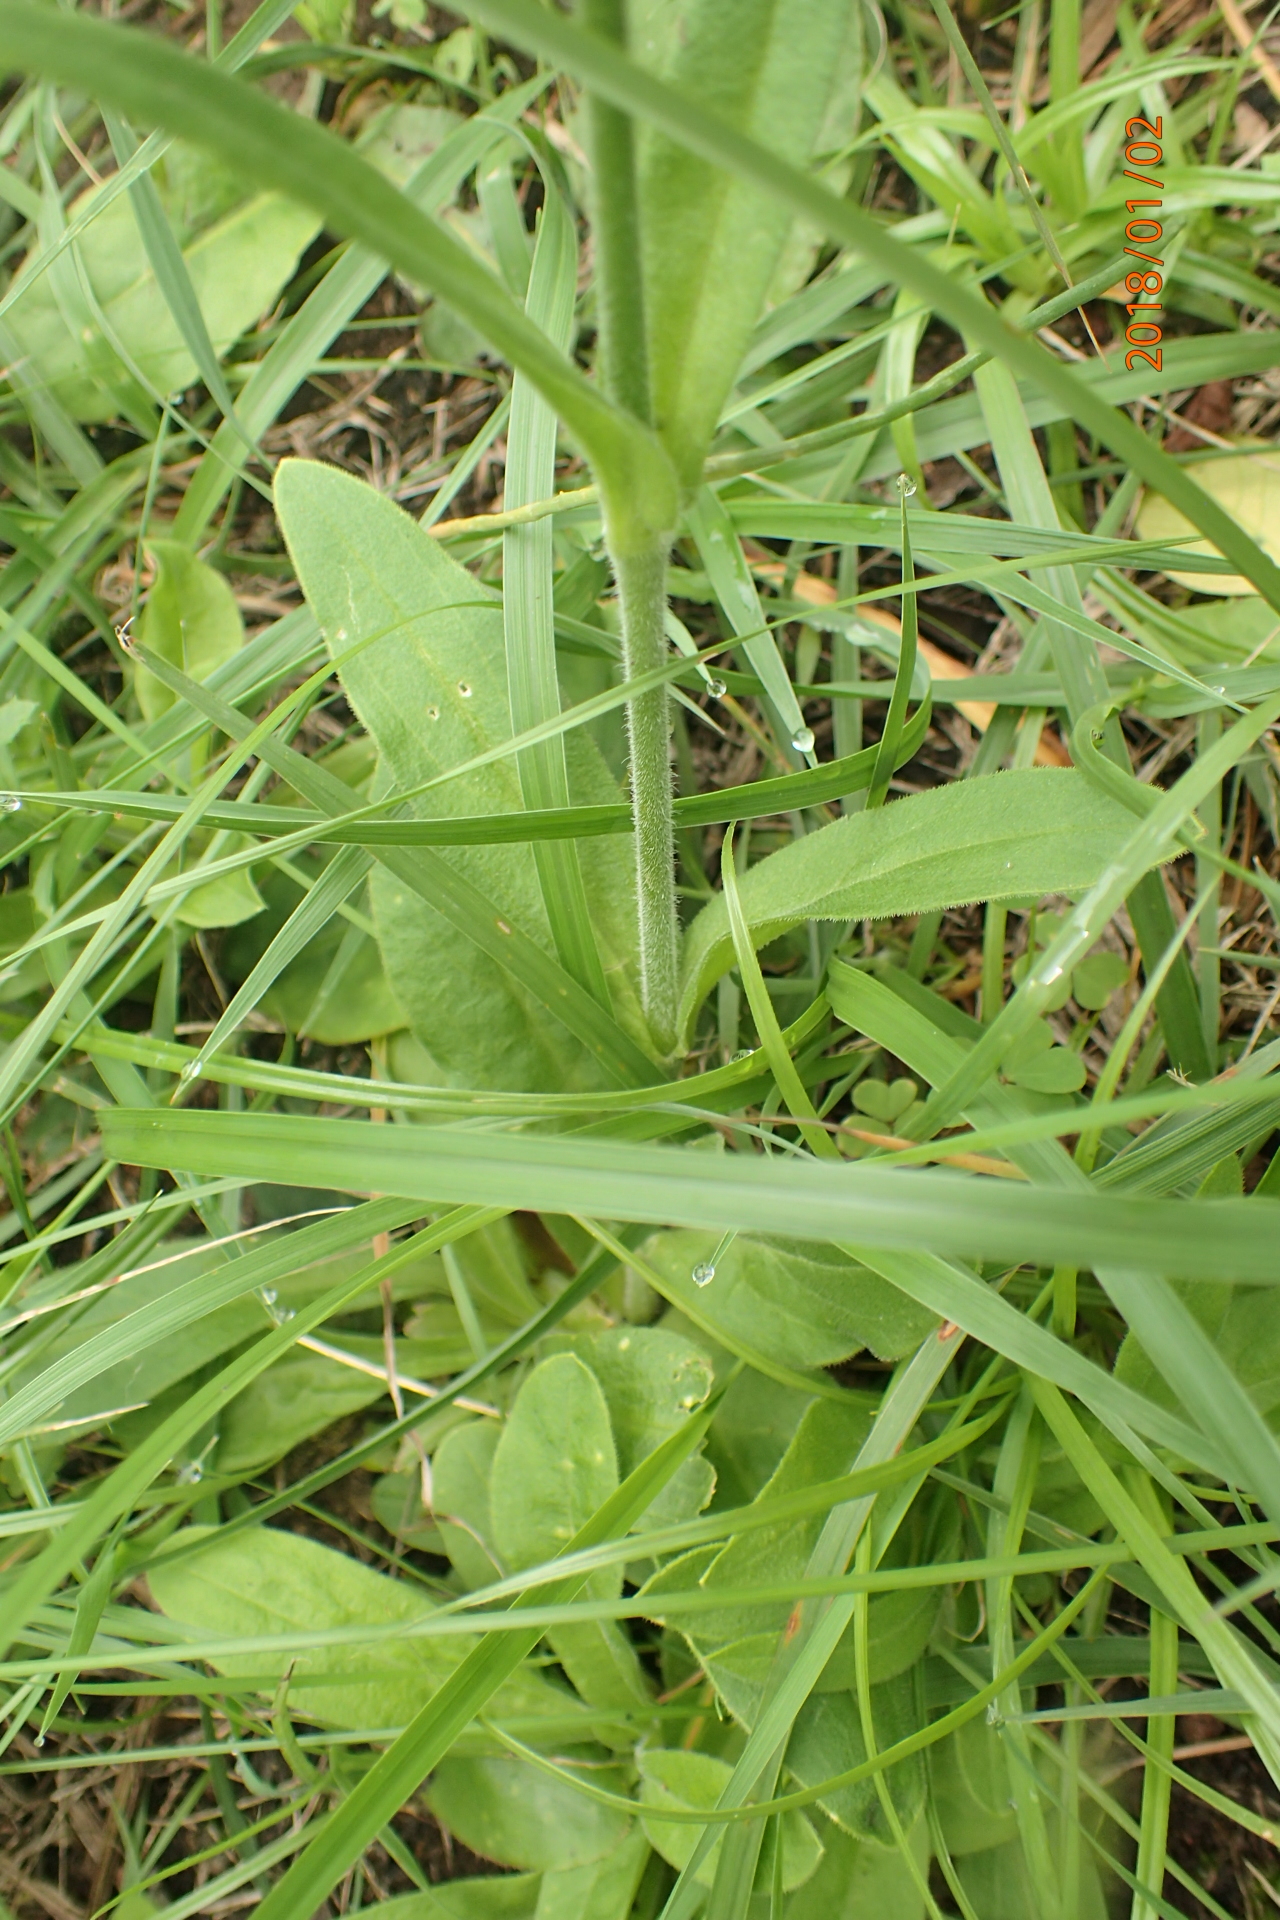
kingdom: Plantae
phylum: Tracheophyta
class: Magnoliopsida
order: Caryophyllales
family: Caryophyllaceae
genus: Silene
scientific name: Silene undulata
